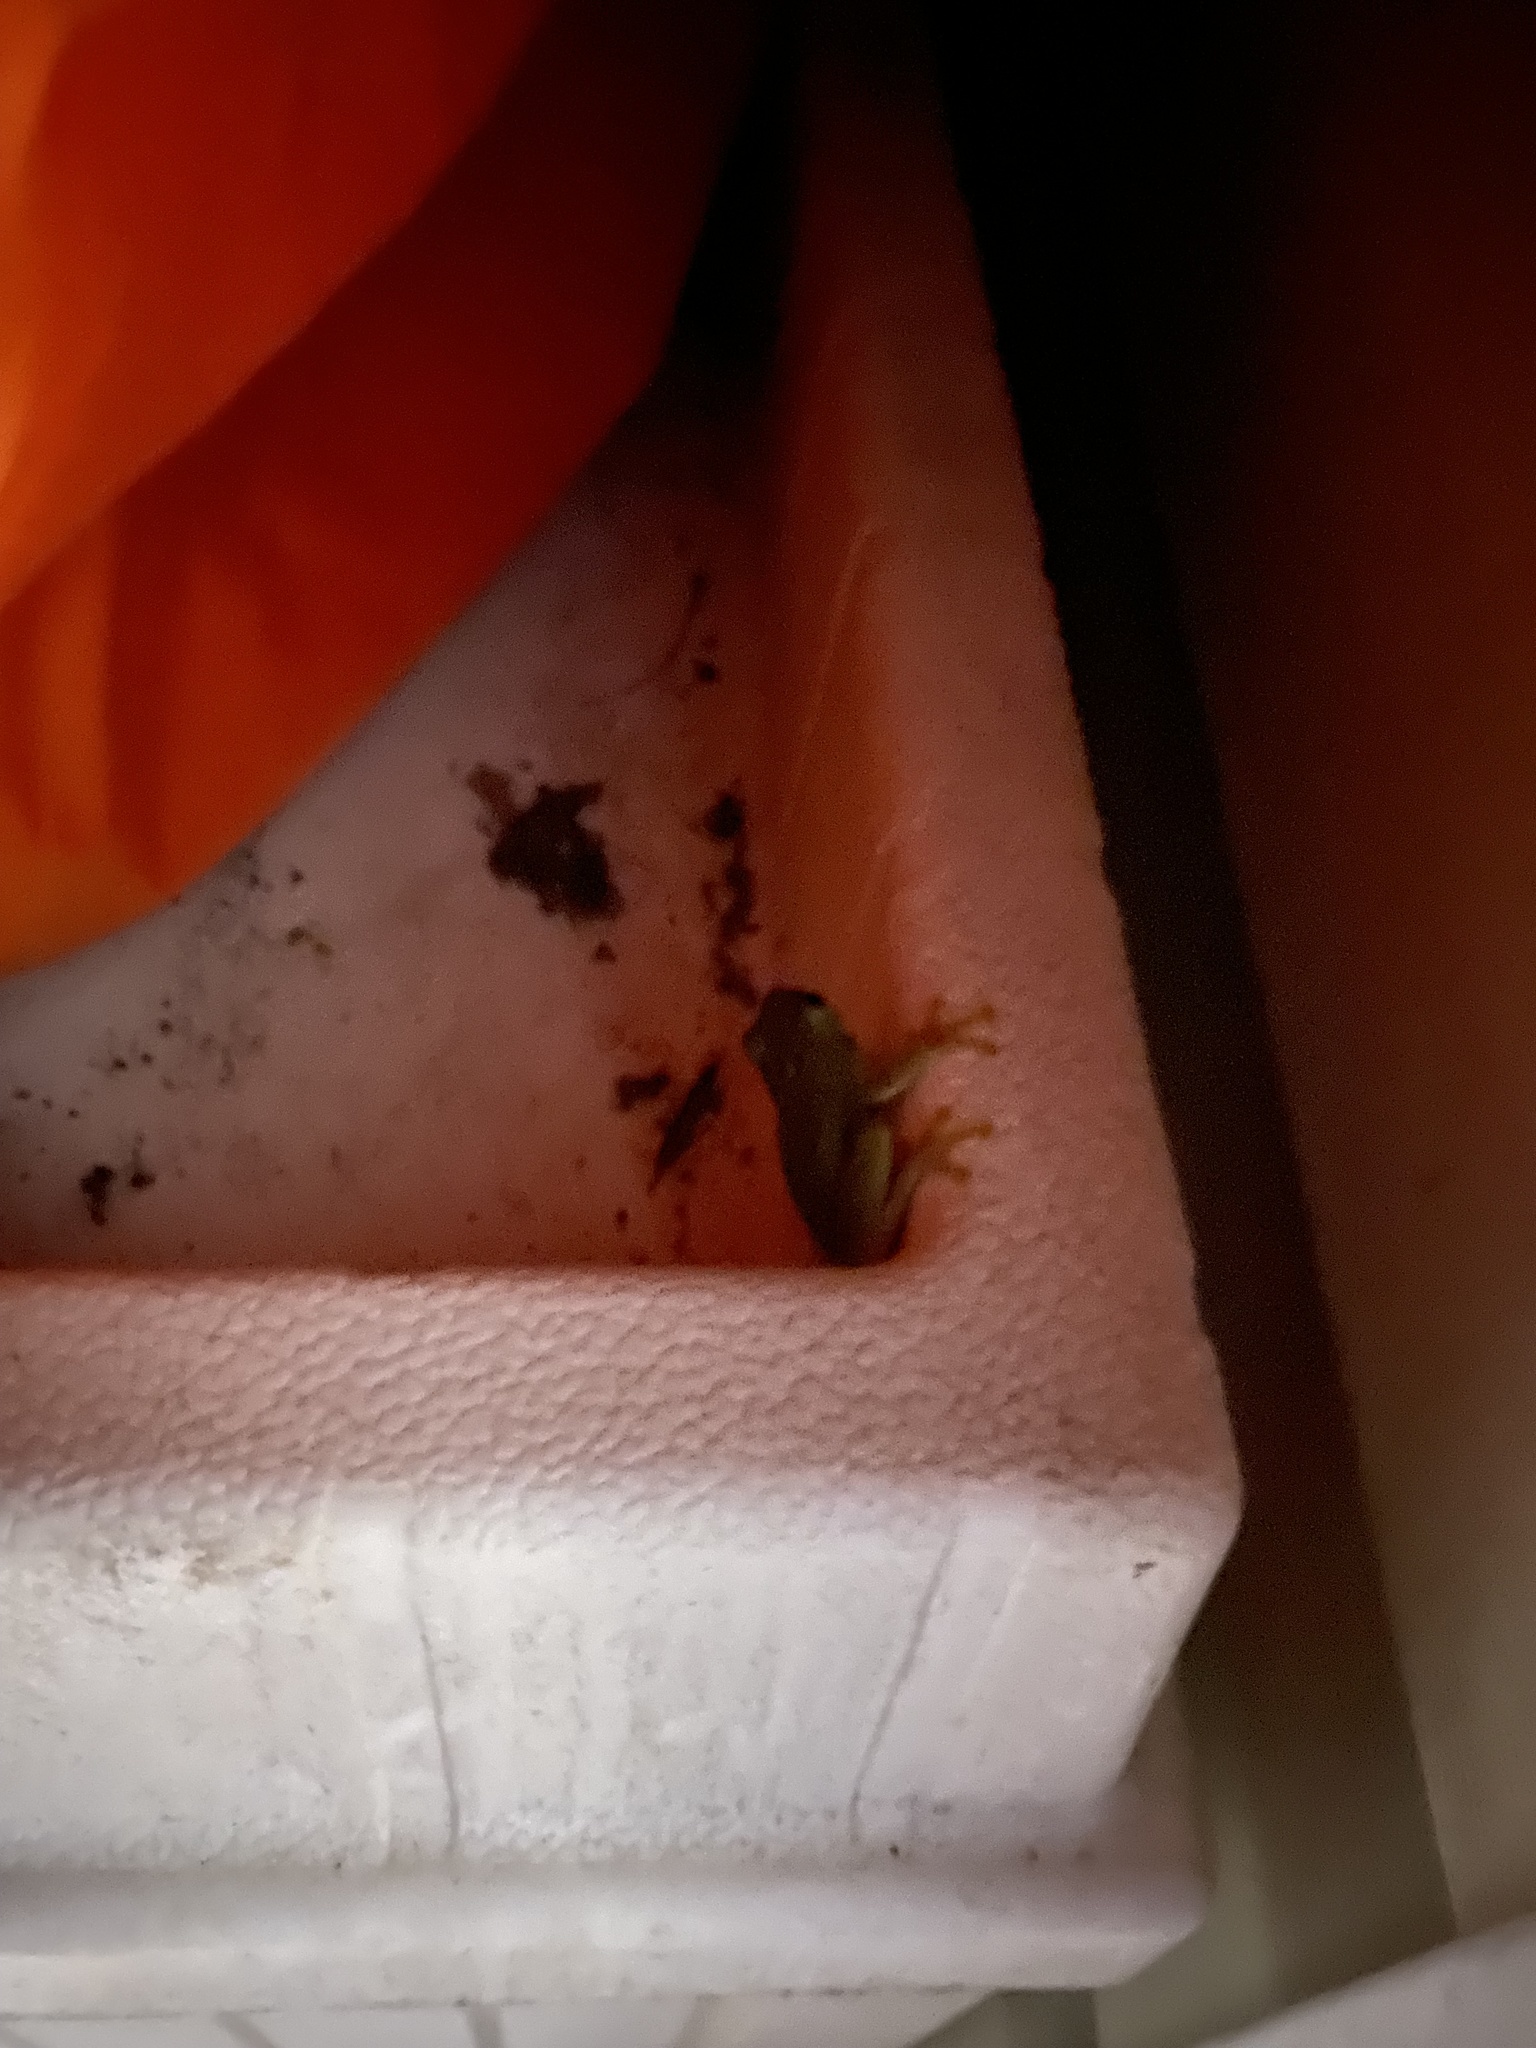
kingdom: Animalia
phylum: Chordata
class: Amphibia
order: Anura
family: Hylidae
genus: Dryophytes
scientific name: Dryophytes squirellus
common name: Squirrel treefrog
